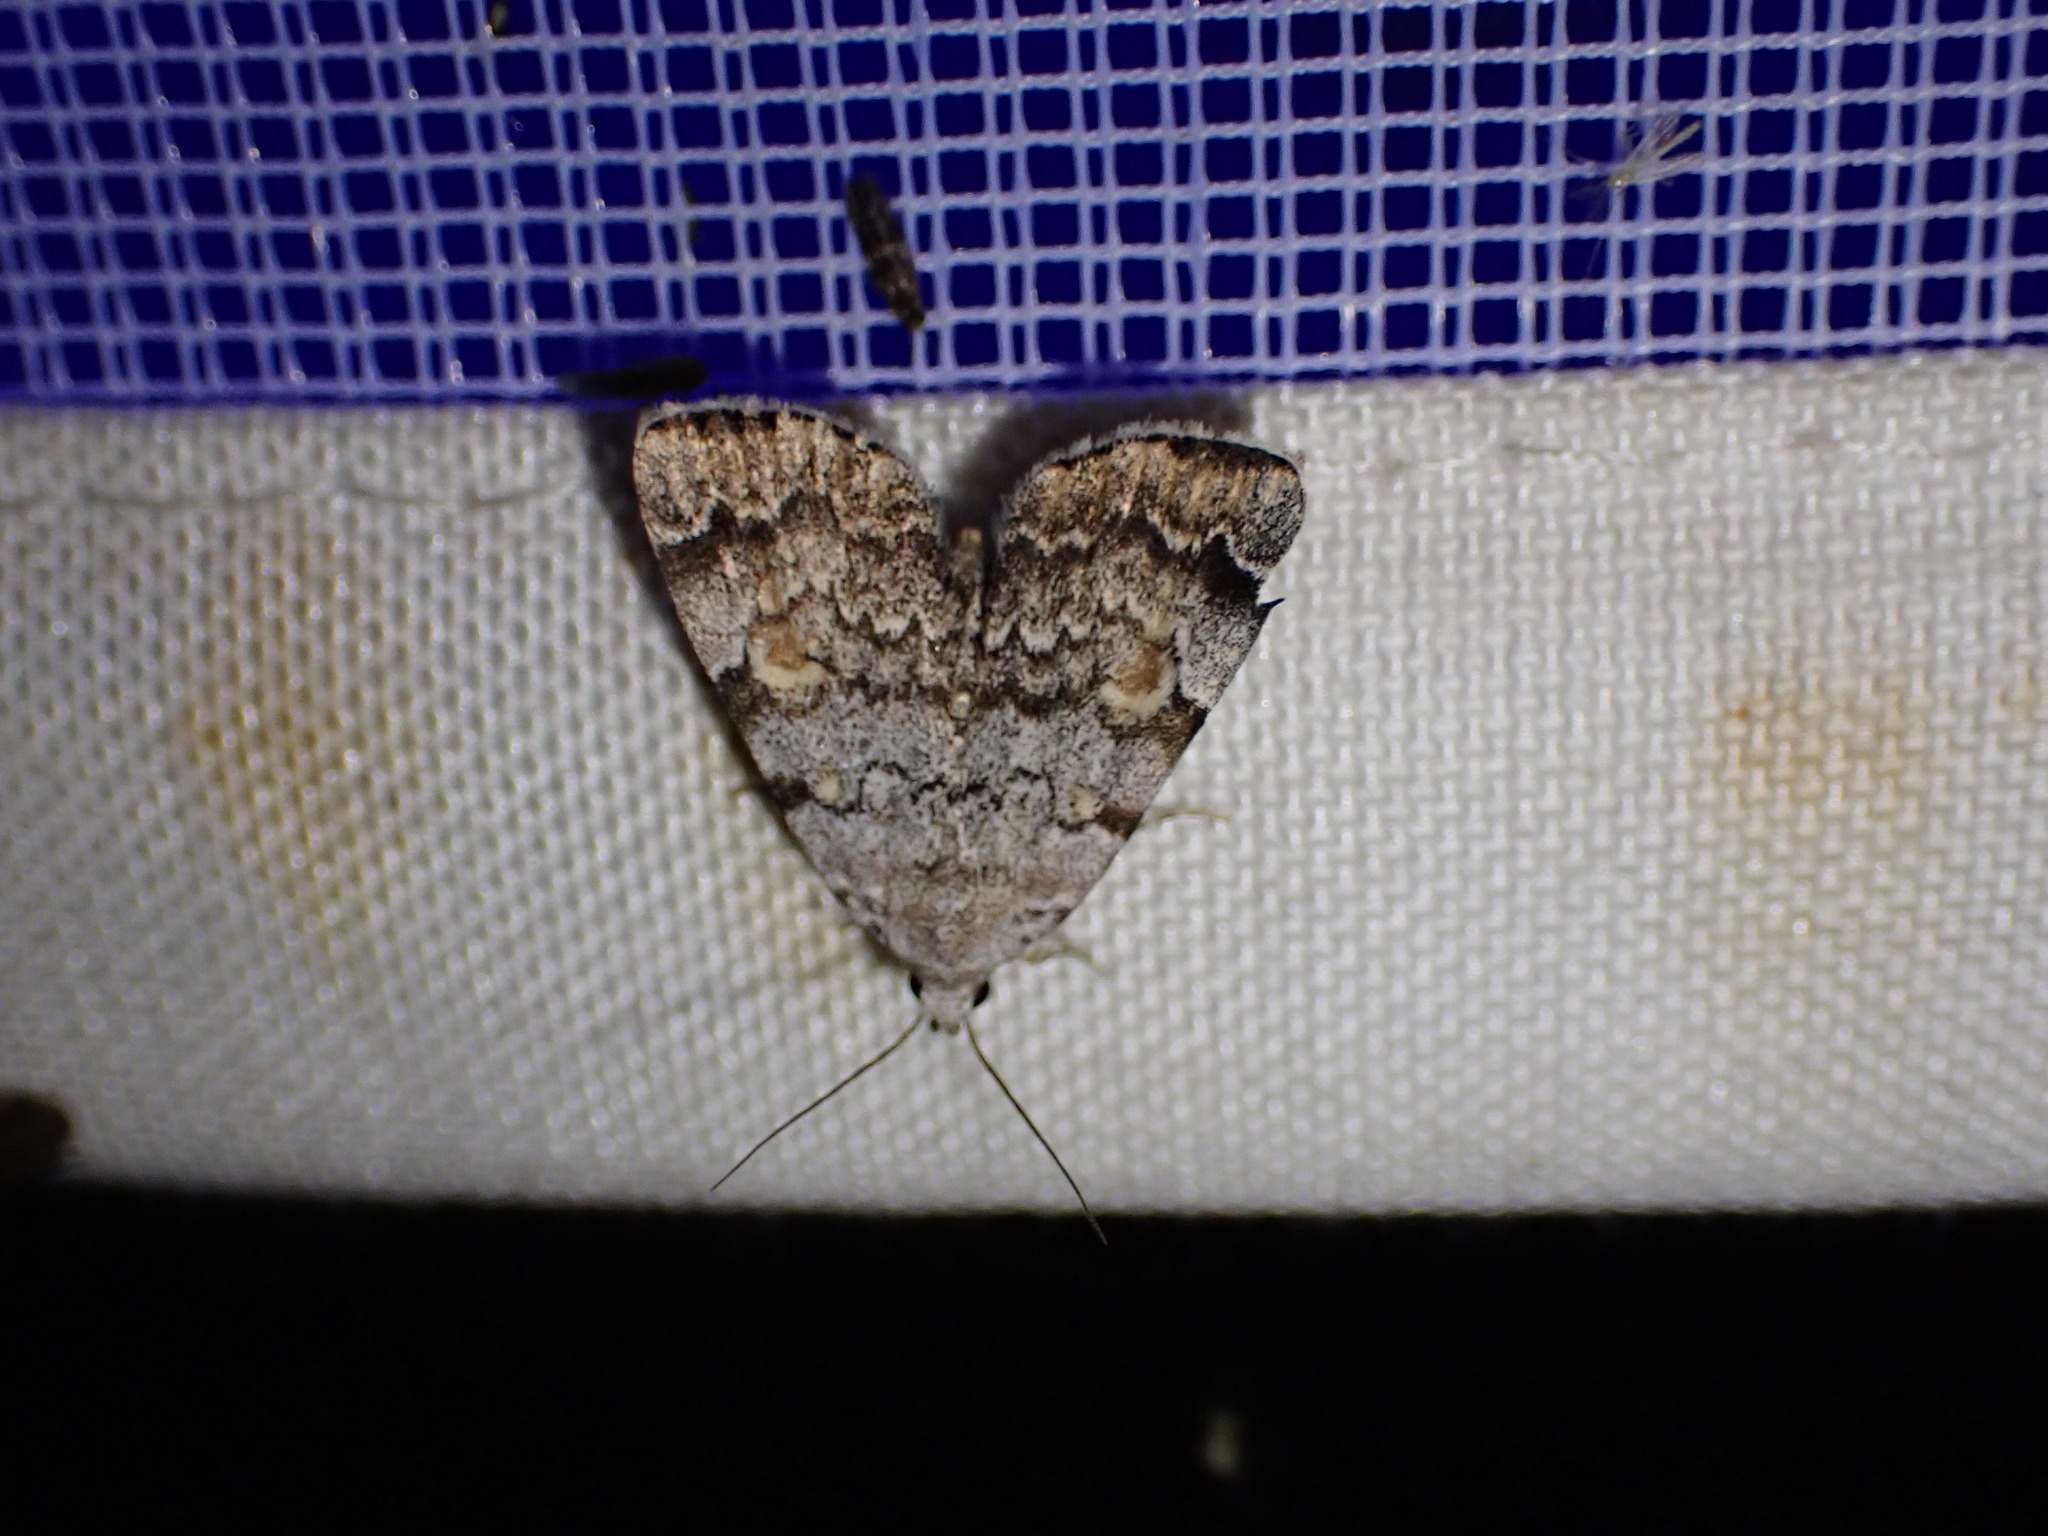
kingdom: Animalia
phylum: Arthropoda
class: Insecta
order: Lepidoptera
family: Erebidae
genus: Idia
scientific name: Idia americalis
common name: American idia moth
